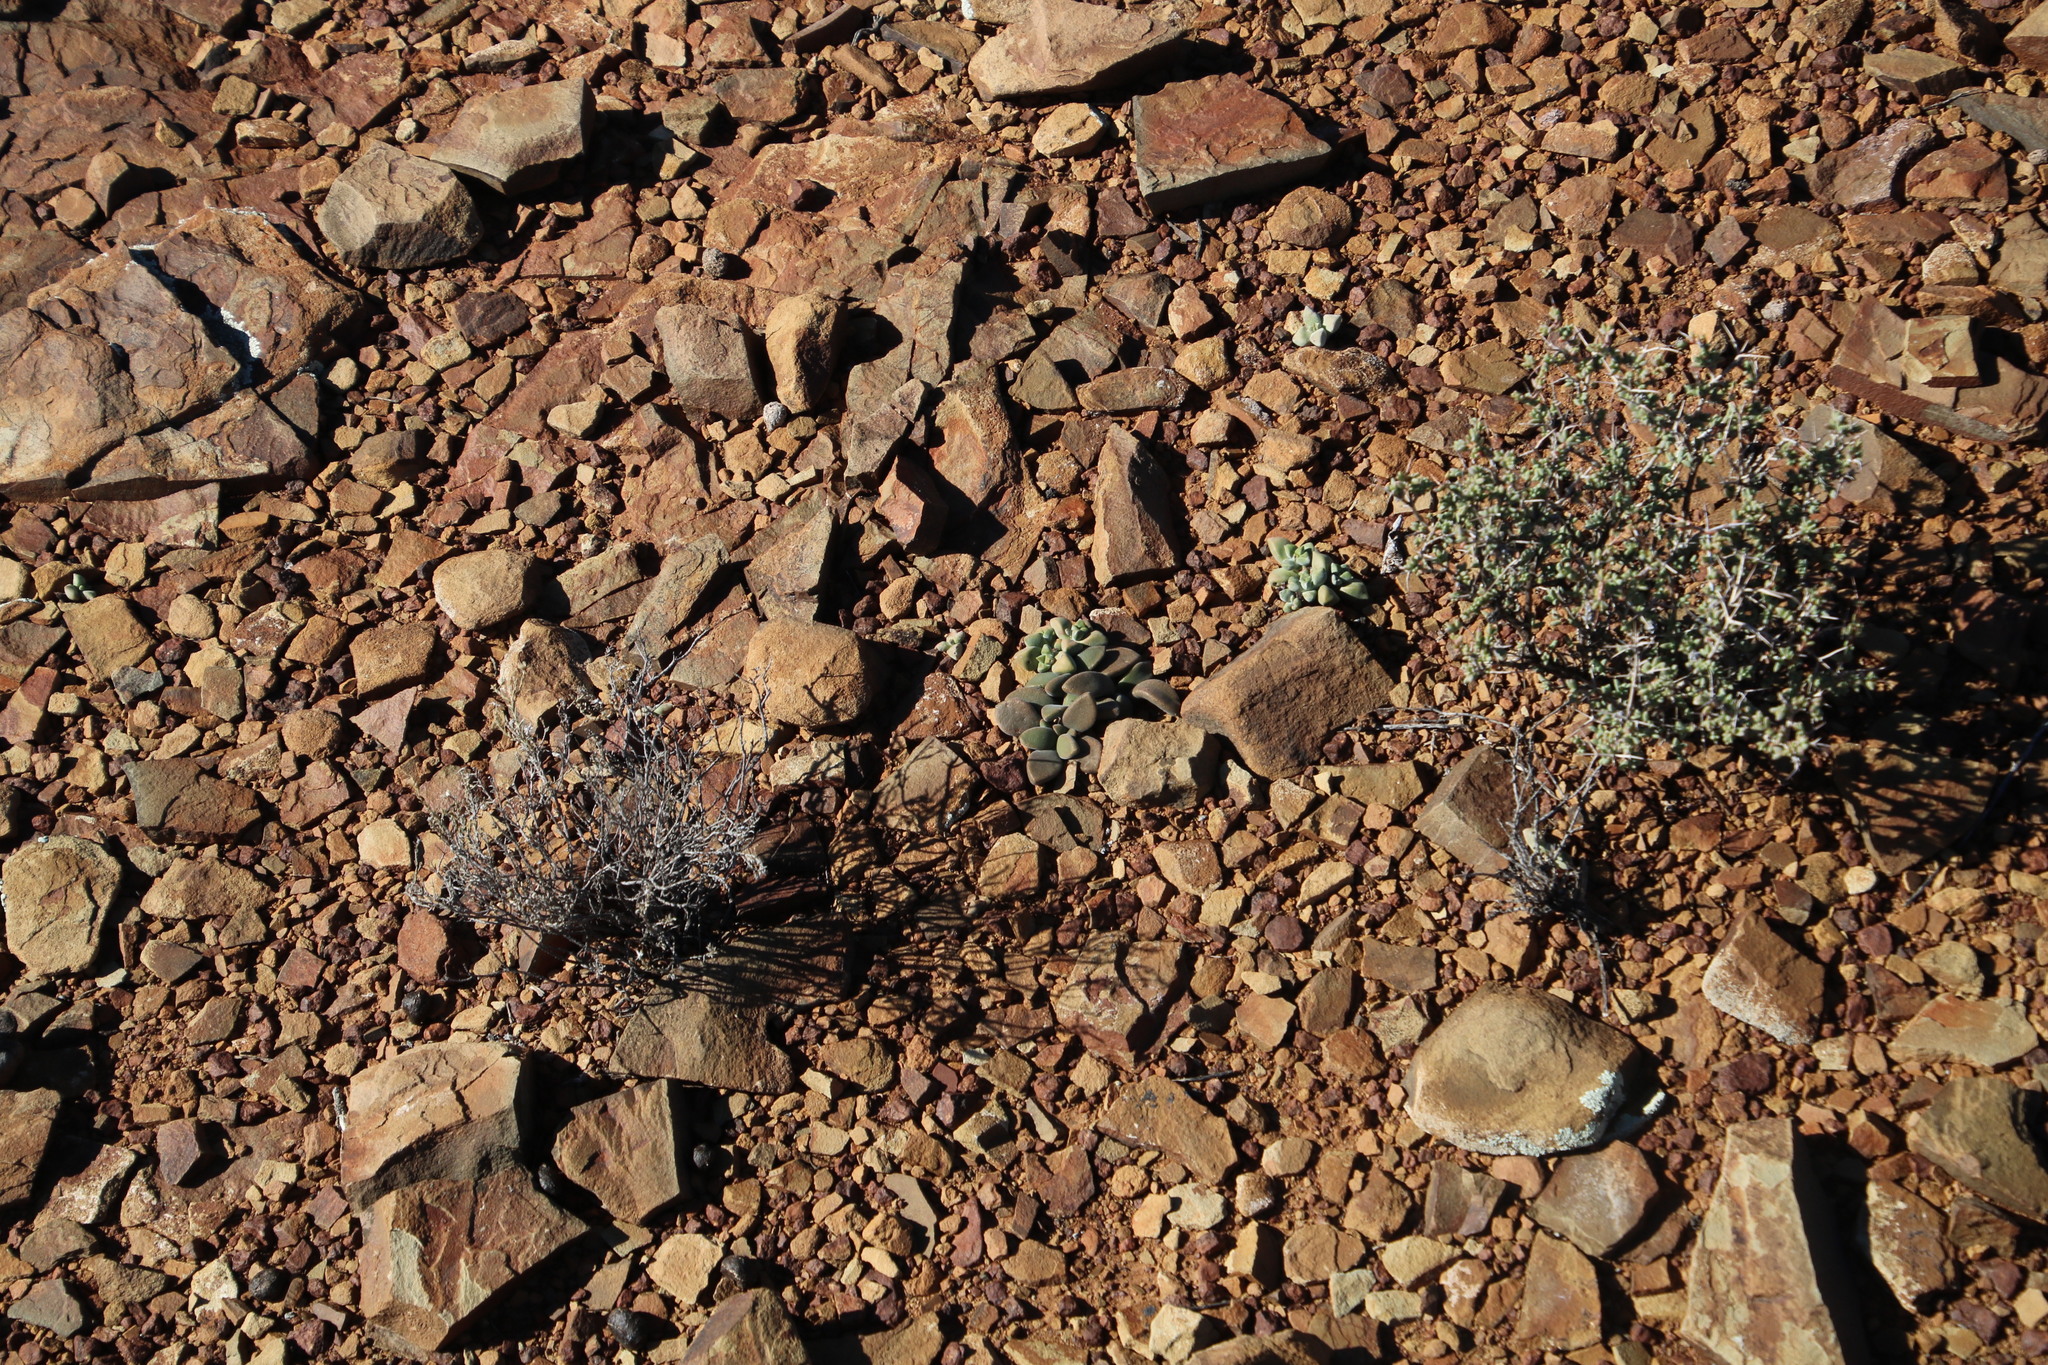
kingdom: Plantae
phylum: Tracheophyta
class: Magnoliopsida
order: Saxifragales
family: Crassulaceae
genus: Crassula
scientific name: Crassula deltoidea
